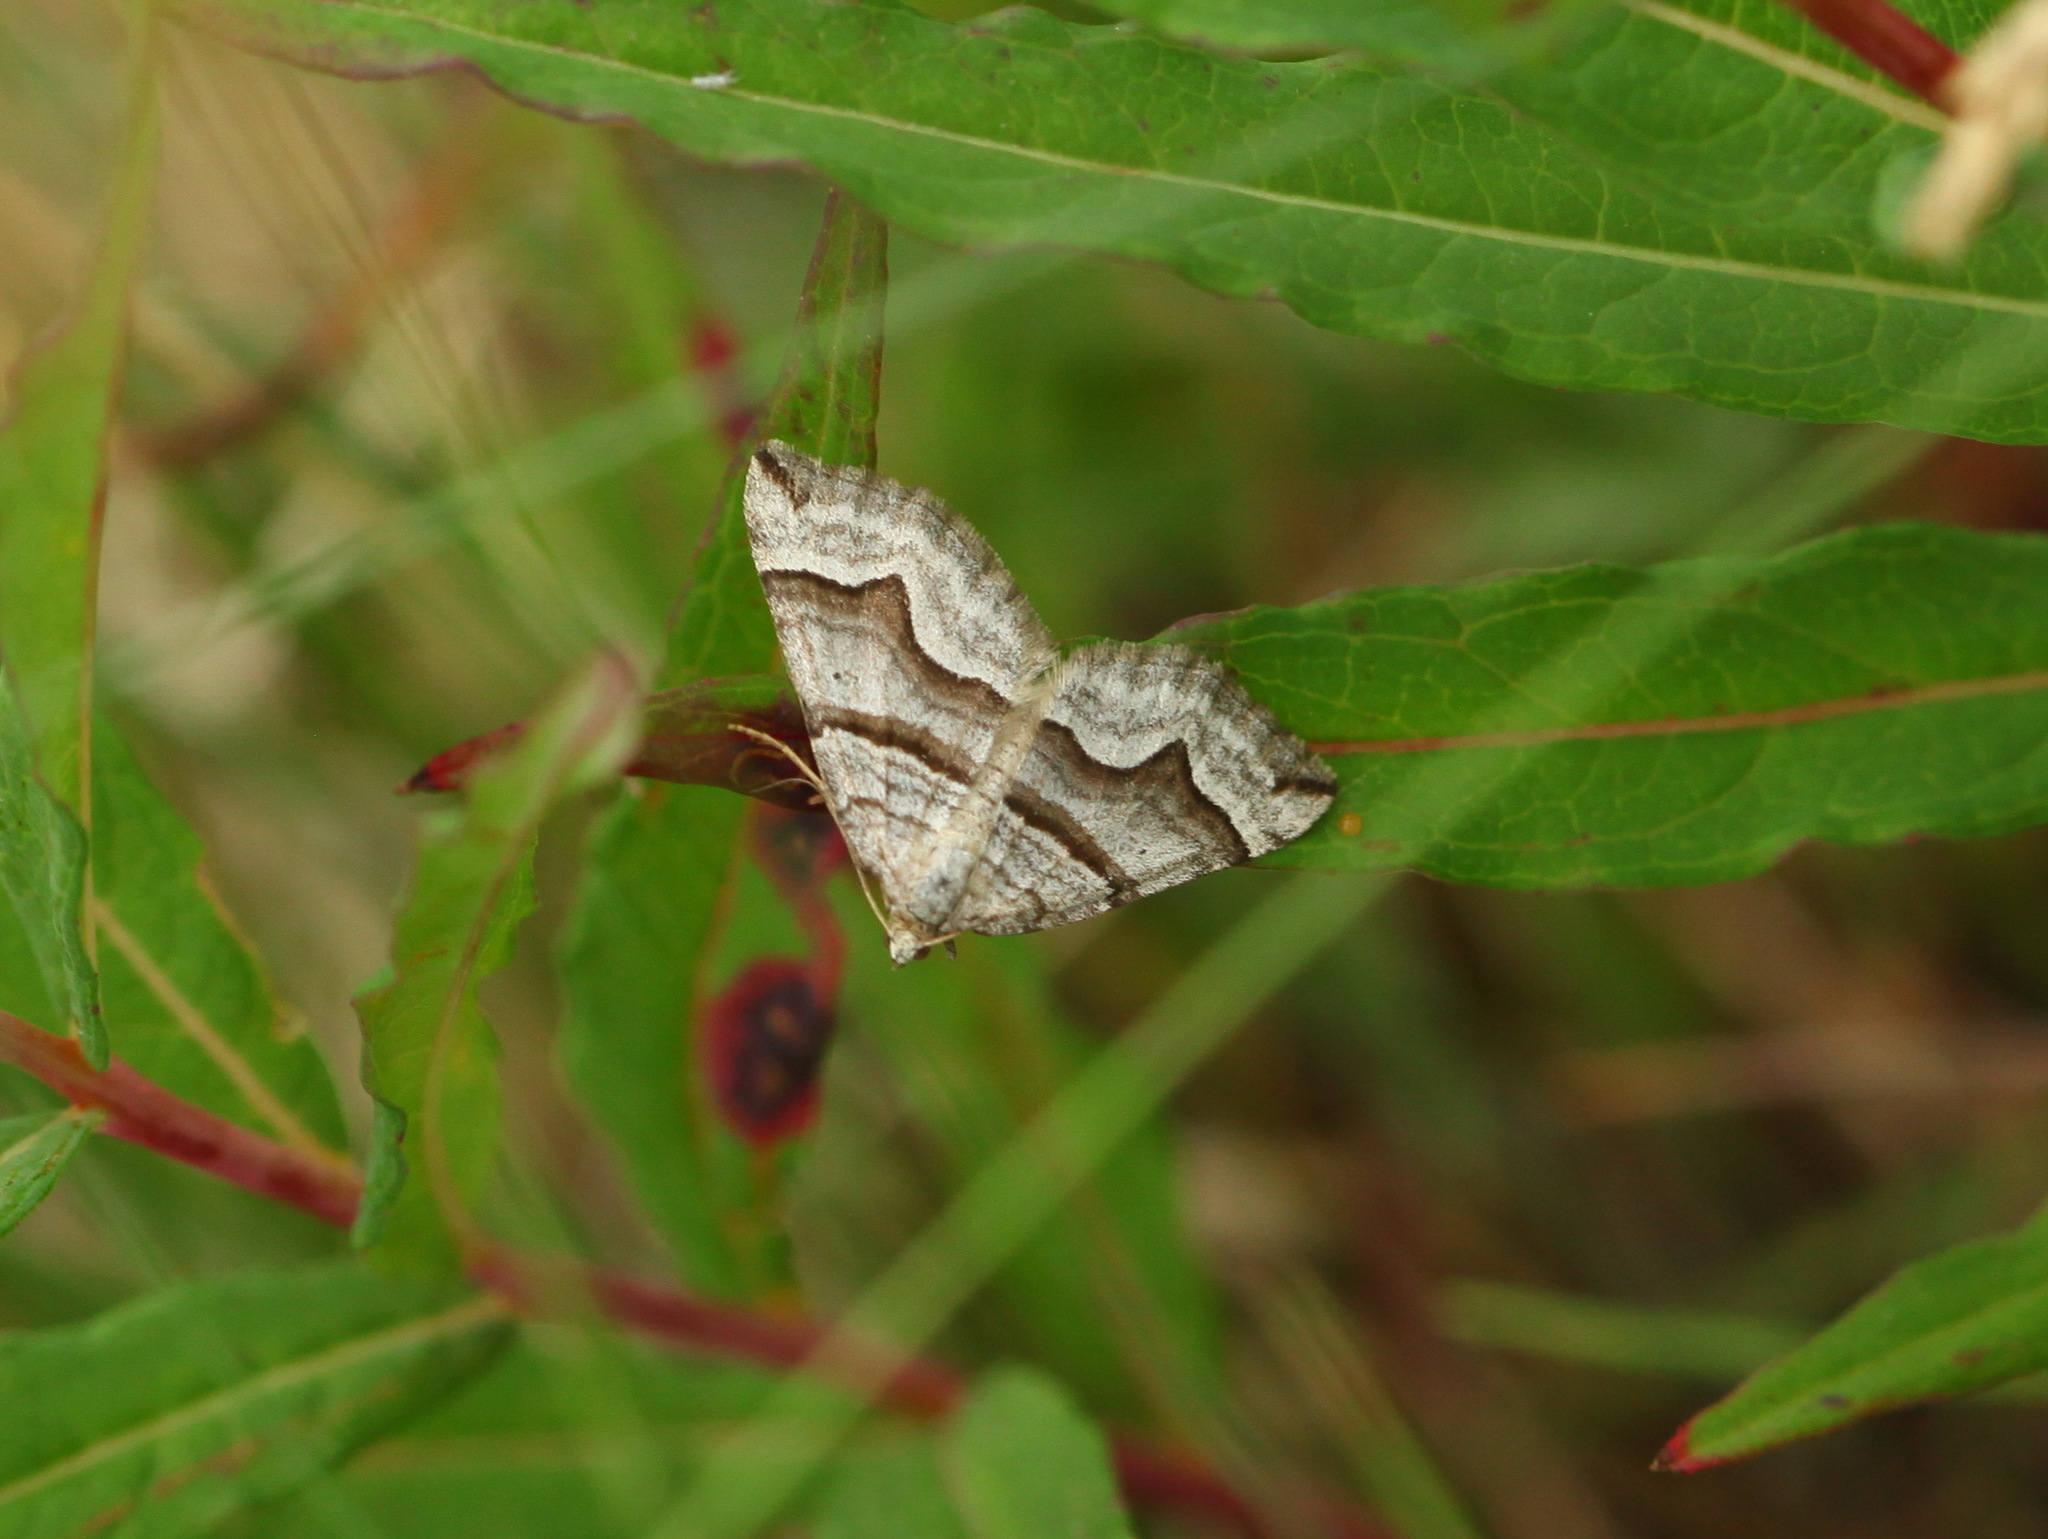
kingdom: Animalia
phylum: Arthropoda
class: Insecta
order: Lepidoptera
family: Geometridae
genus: Scotopteryx
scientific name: Scotopteryx transbaicalica
